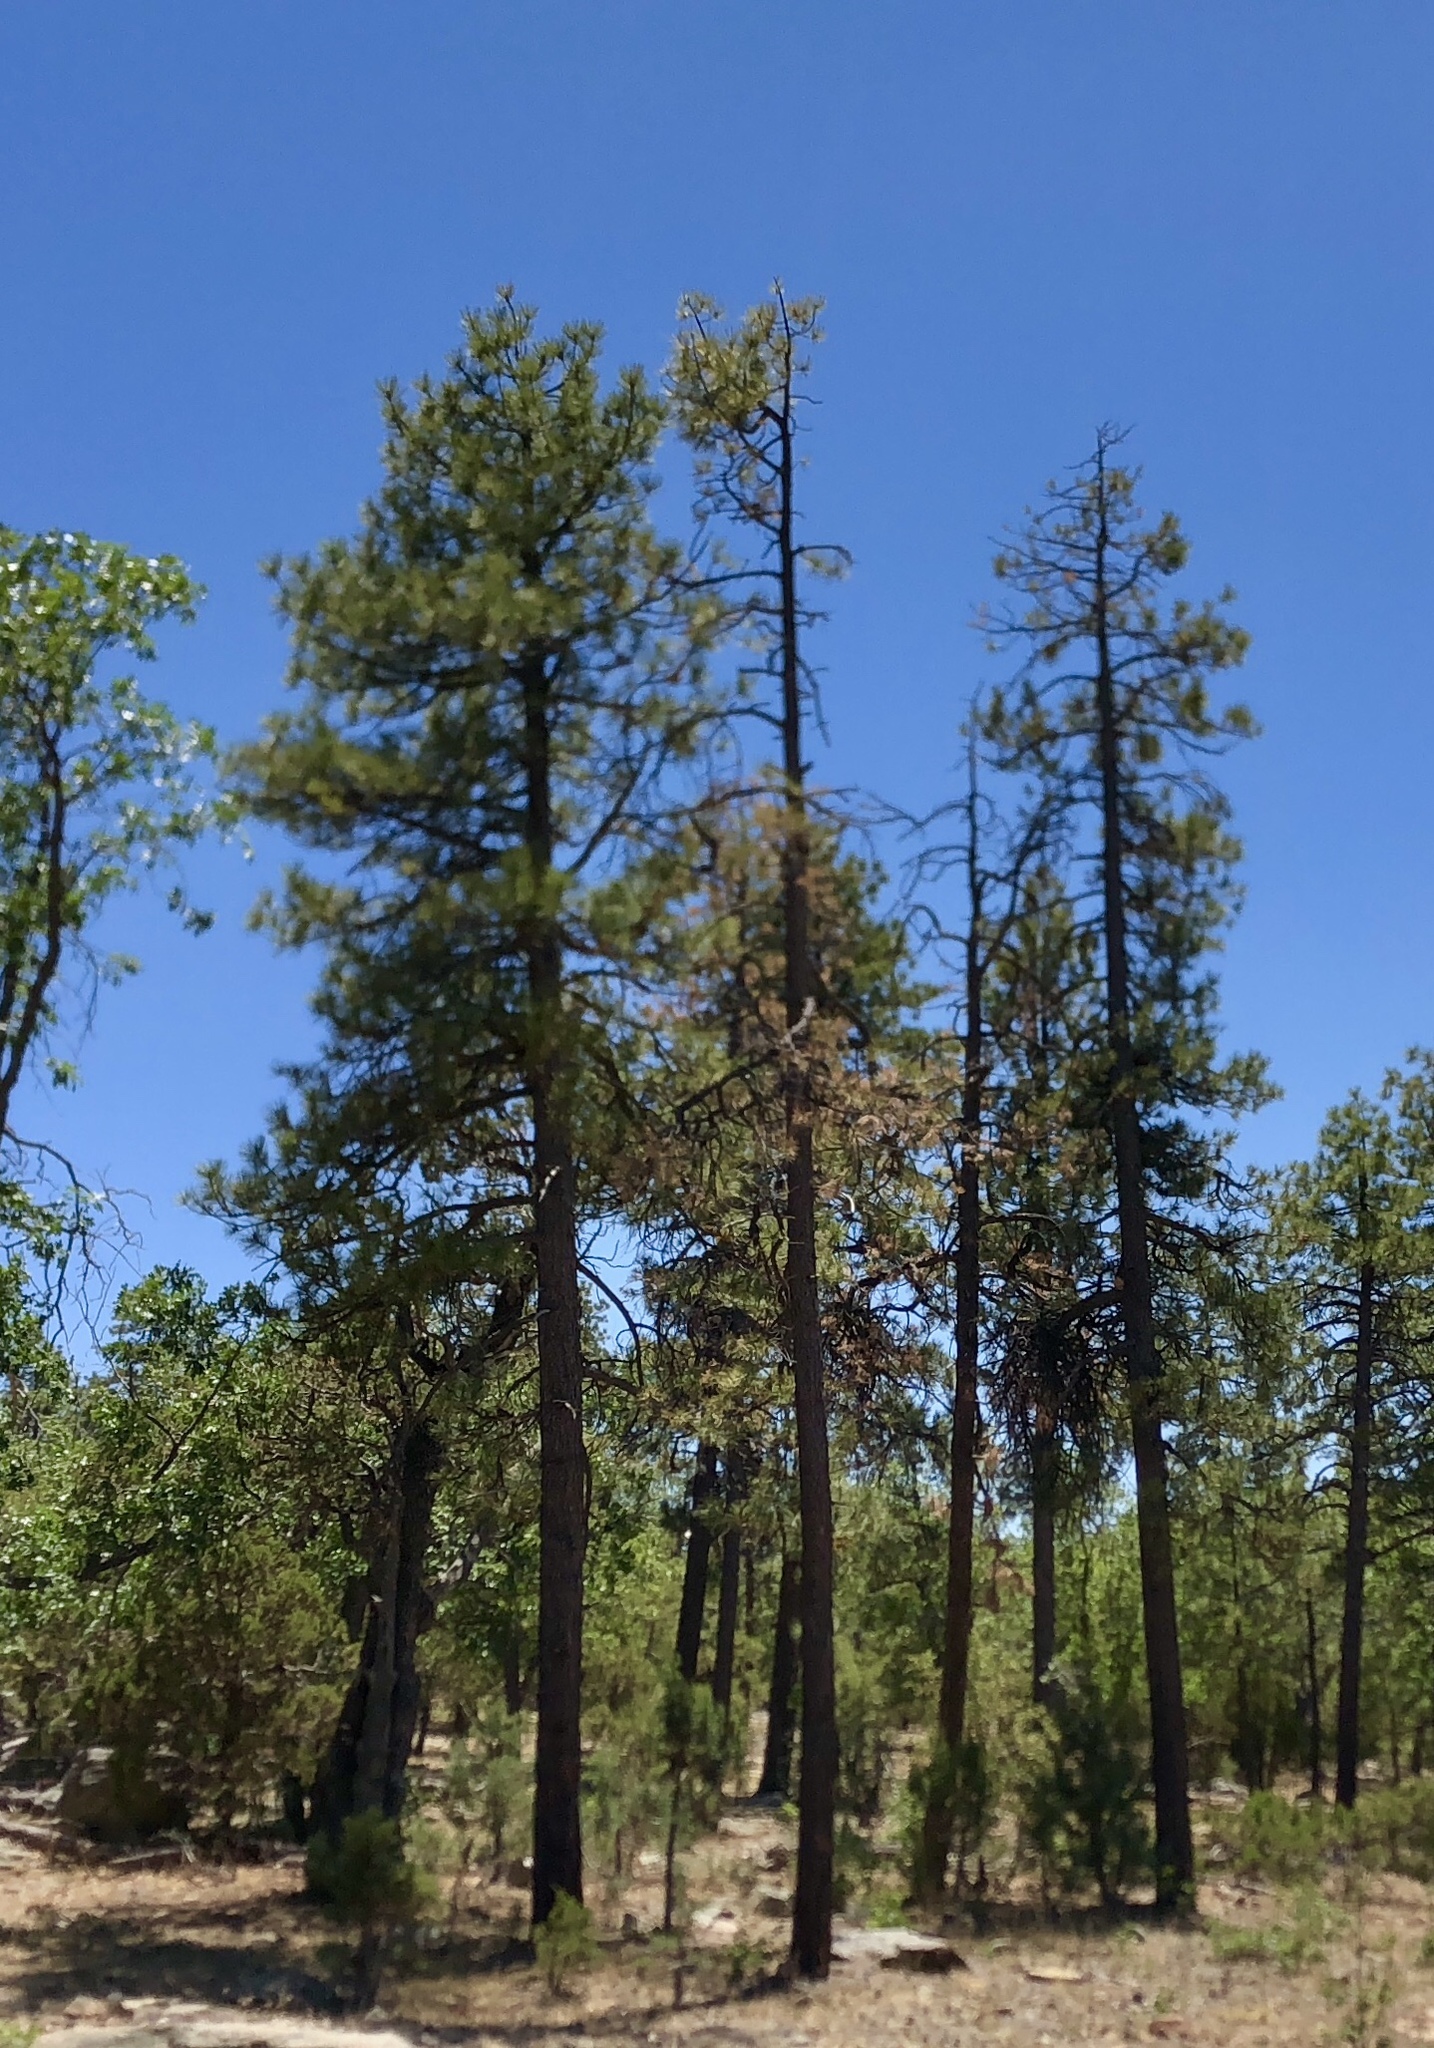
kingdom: Plantae
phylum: Tracheophyta
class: Pinopsida
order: Pinales
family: Pinaceae
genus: Pinus
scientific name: Pinus ponderosa
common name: Western yellow-pine
